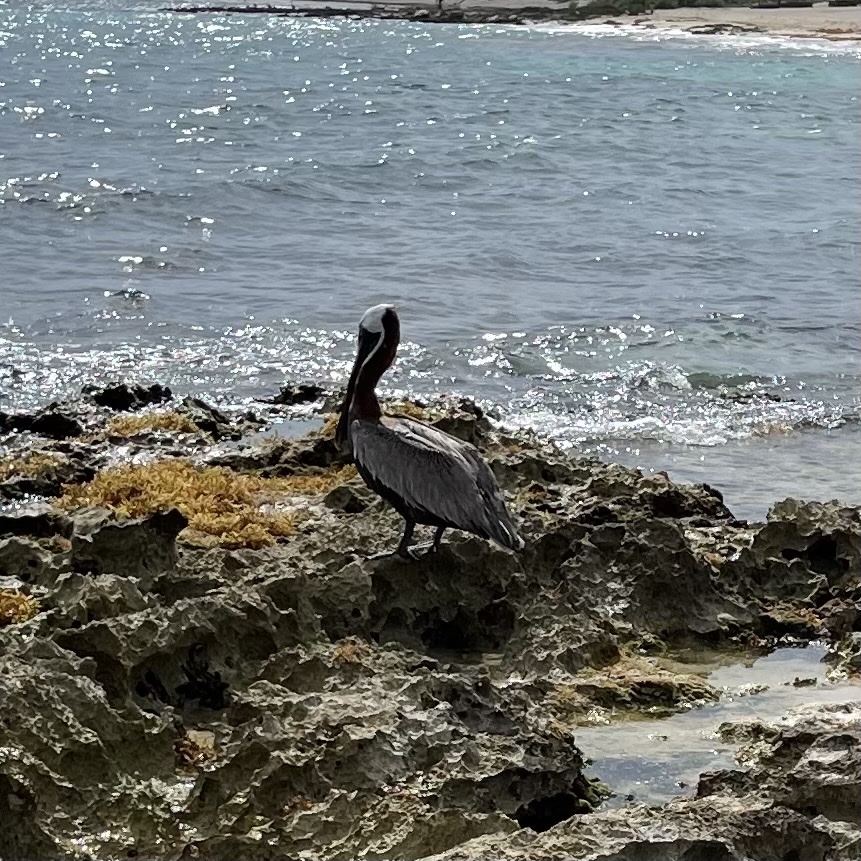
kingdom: Animalia
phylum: Chordata
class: Aves
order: Pelecaniformes
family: Pelecanidae
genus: Pelecanus
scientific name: Pelecanus occidentalis
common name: Brown pelican
